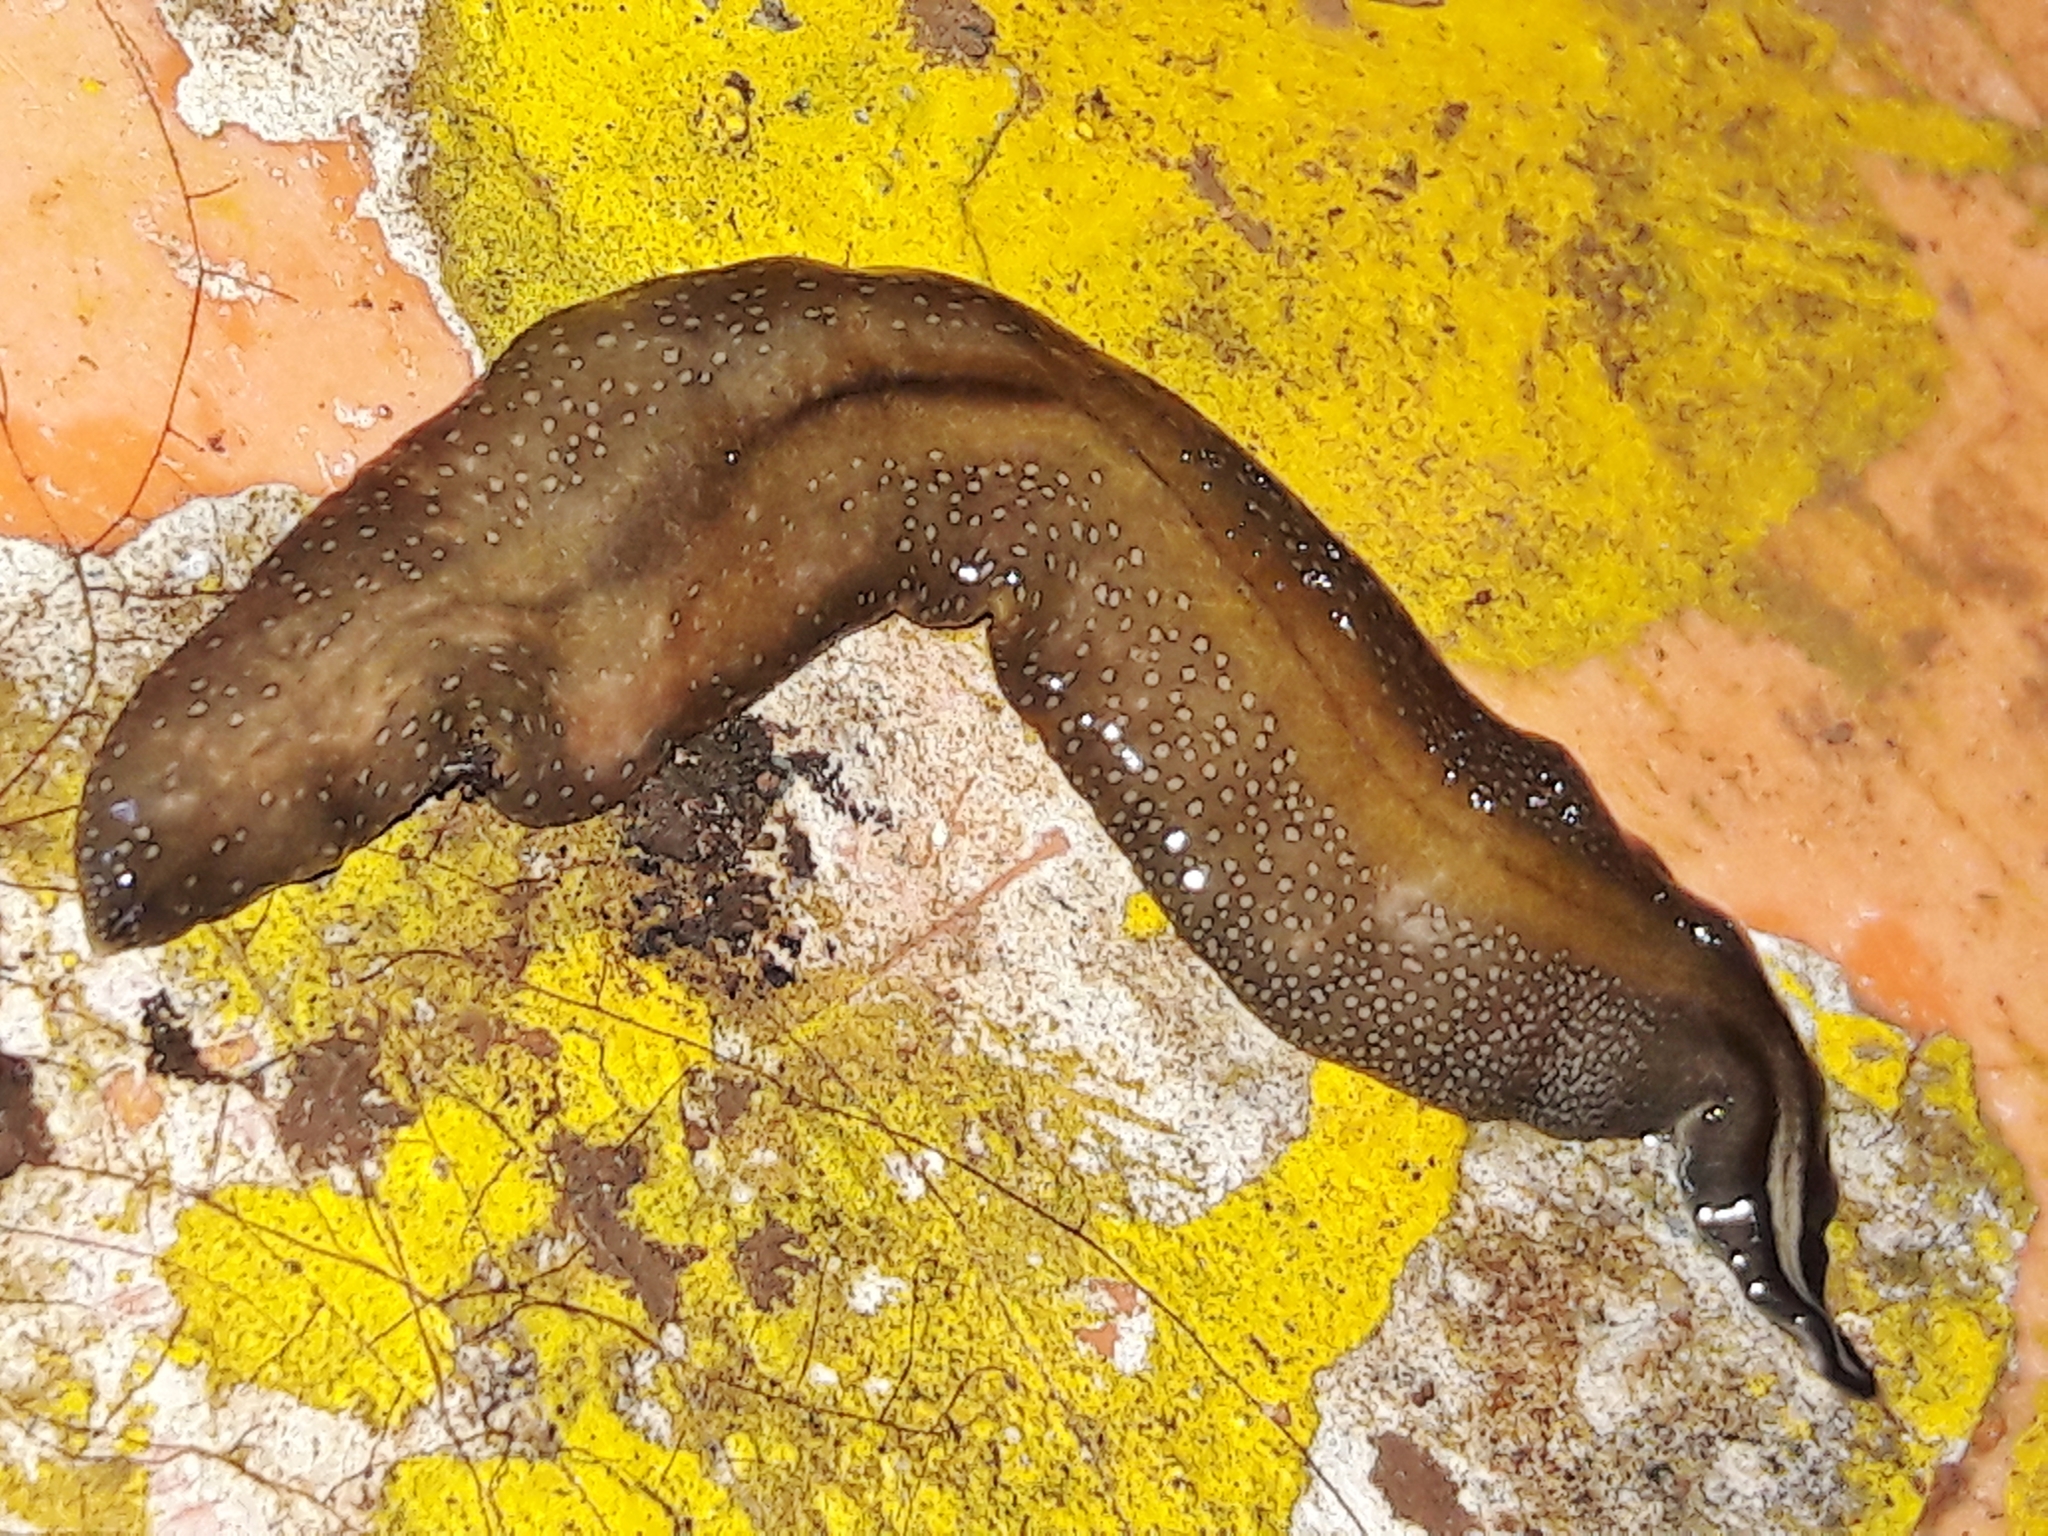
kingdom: Animalia
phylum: Platyhelminthes
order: Tricladida
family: Geoplanidae
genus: Obama
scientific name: Obama burmeisteri
